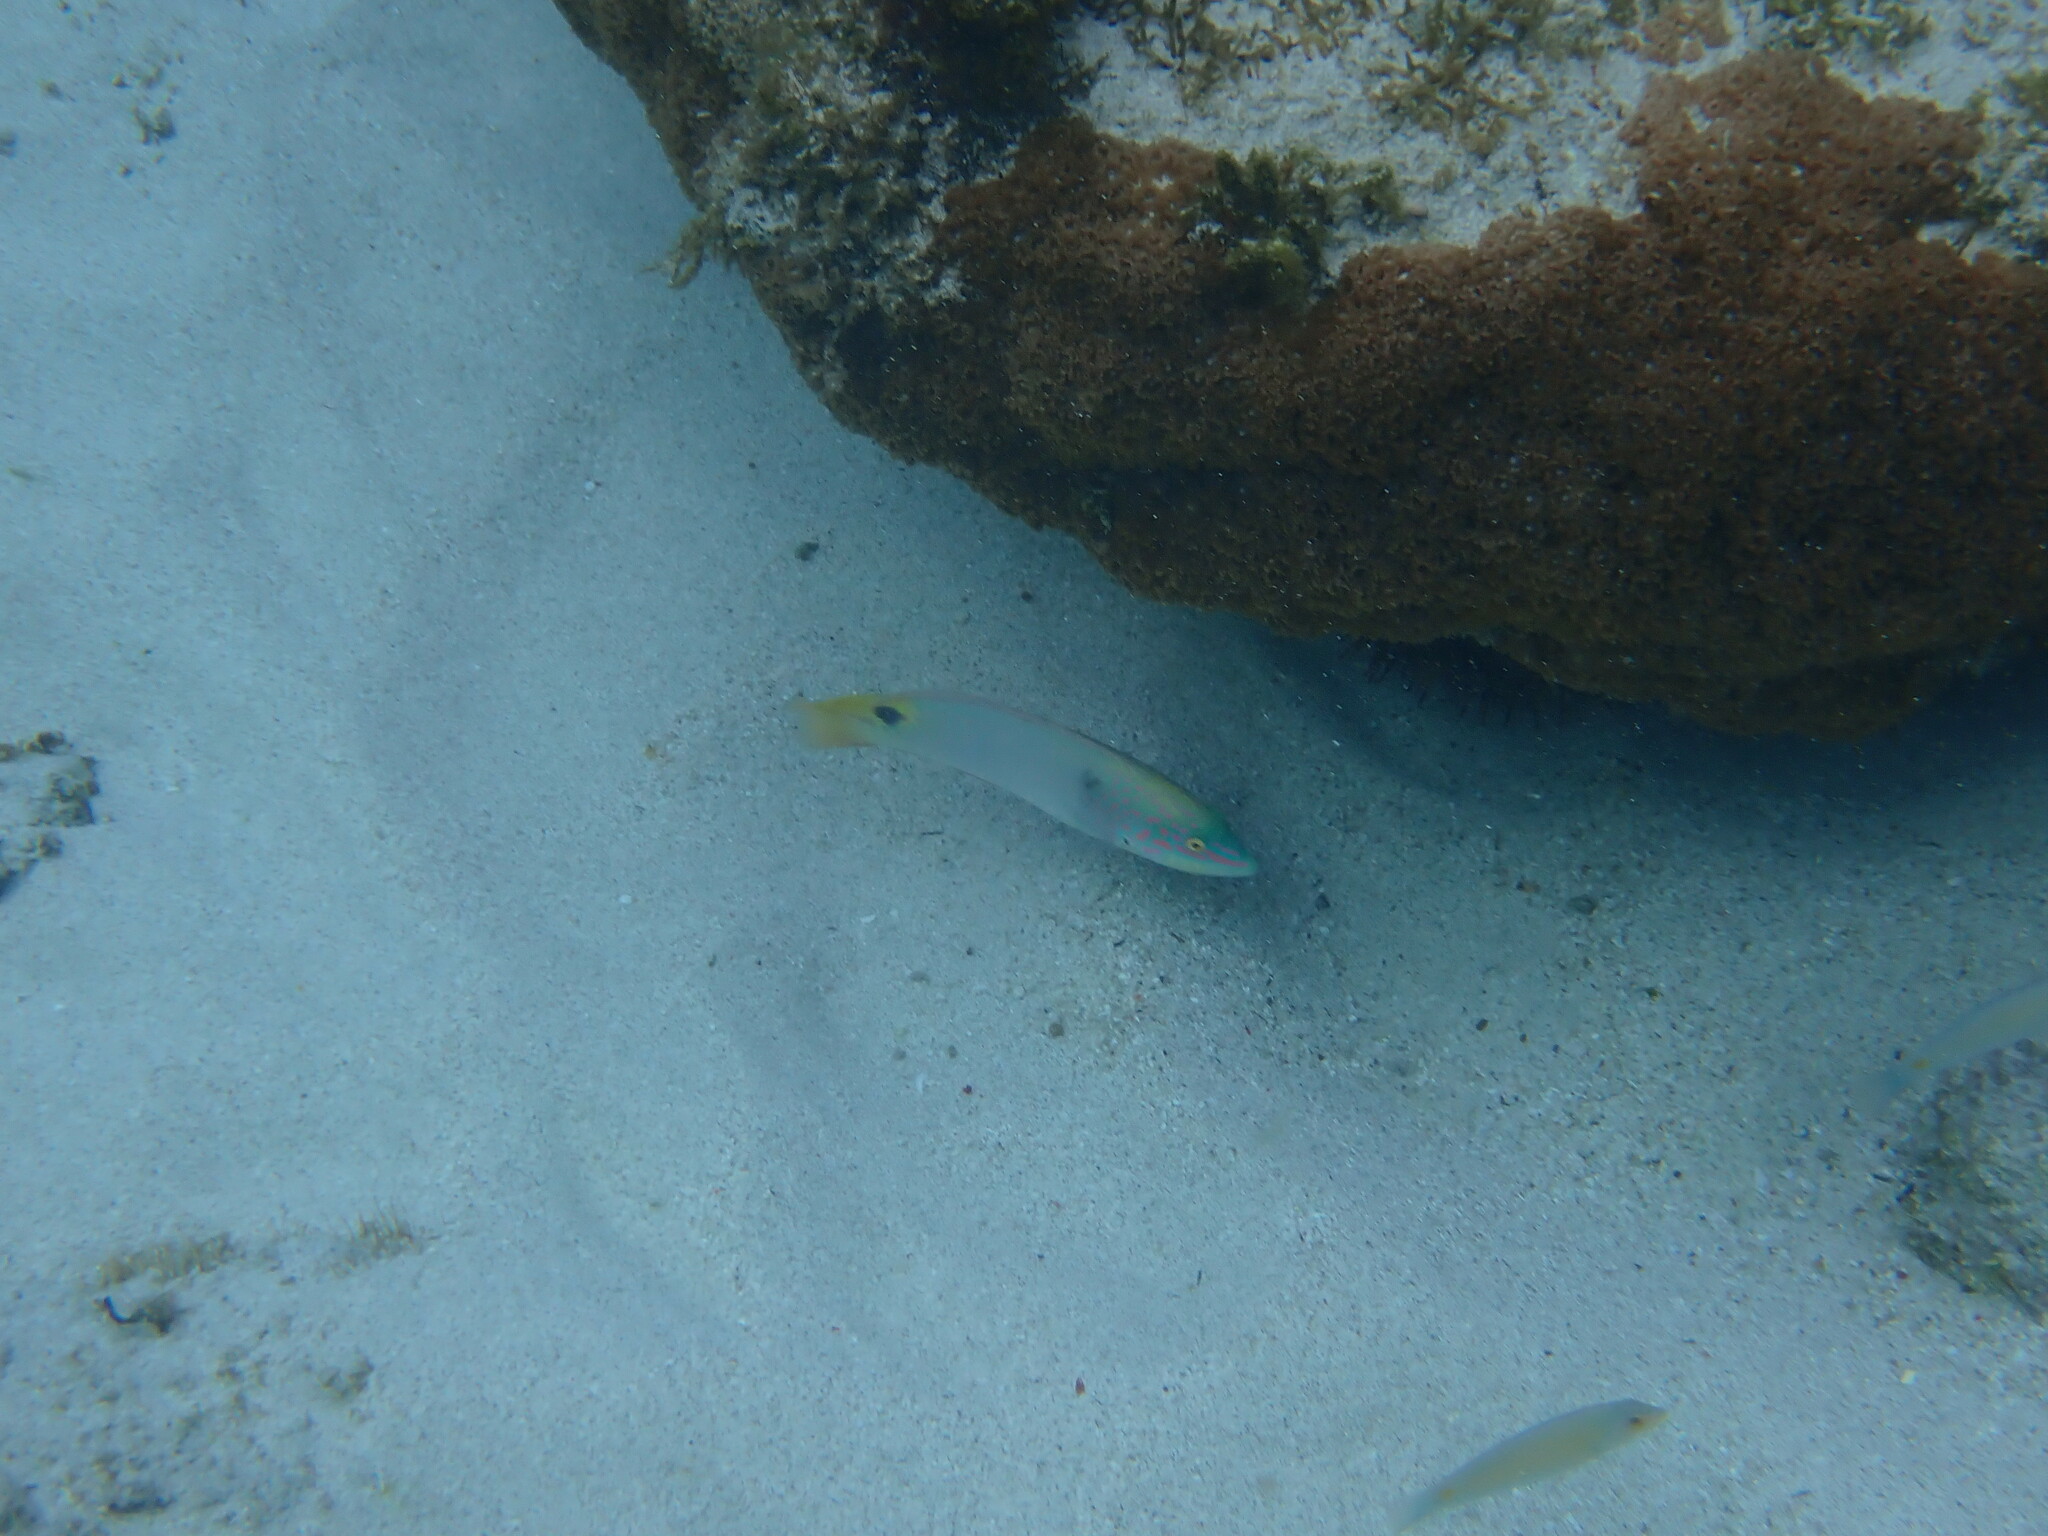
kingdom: Animalia
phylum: Chordata
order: Perciformes
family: Labridae
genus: Halichoeres
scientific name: Halichoeres trimaculatus
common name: Three-spot wrasse
